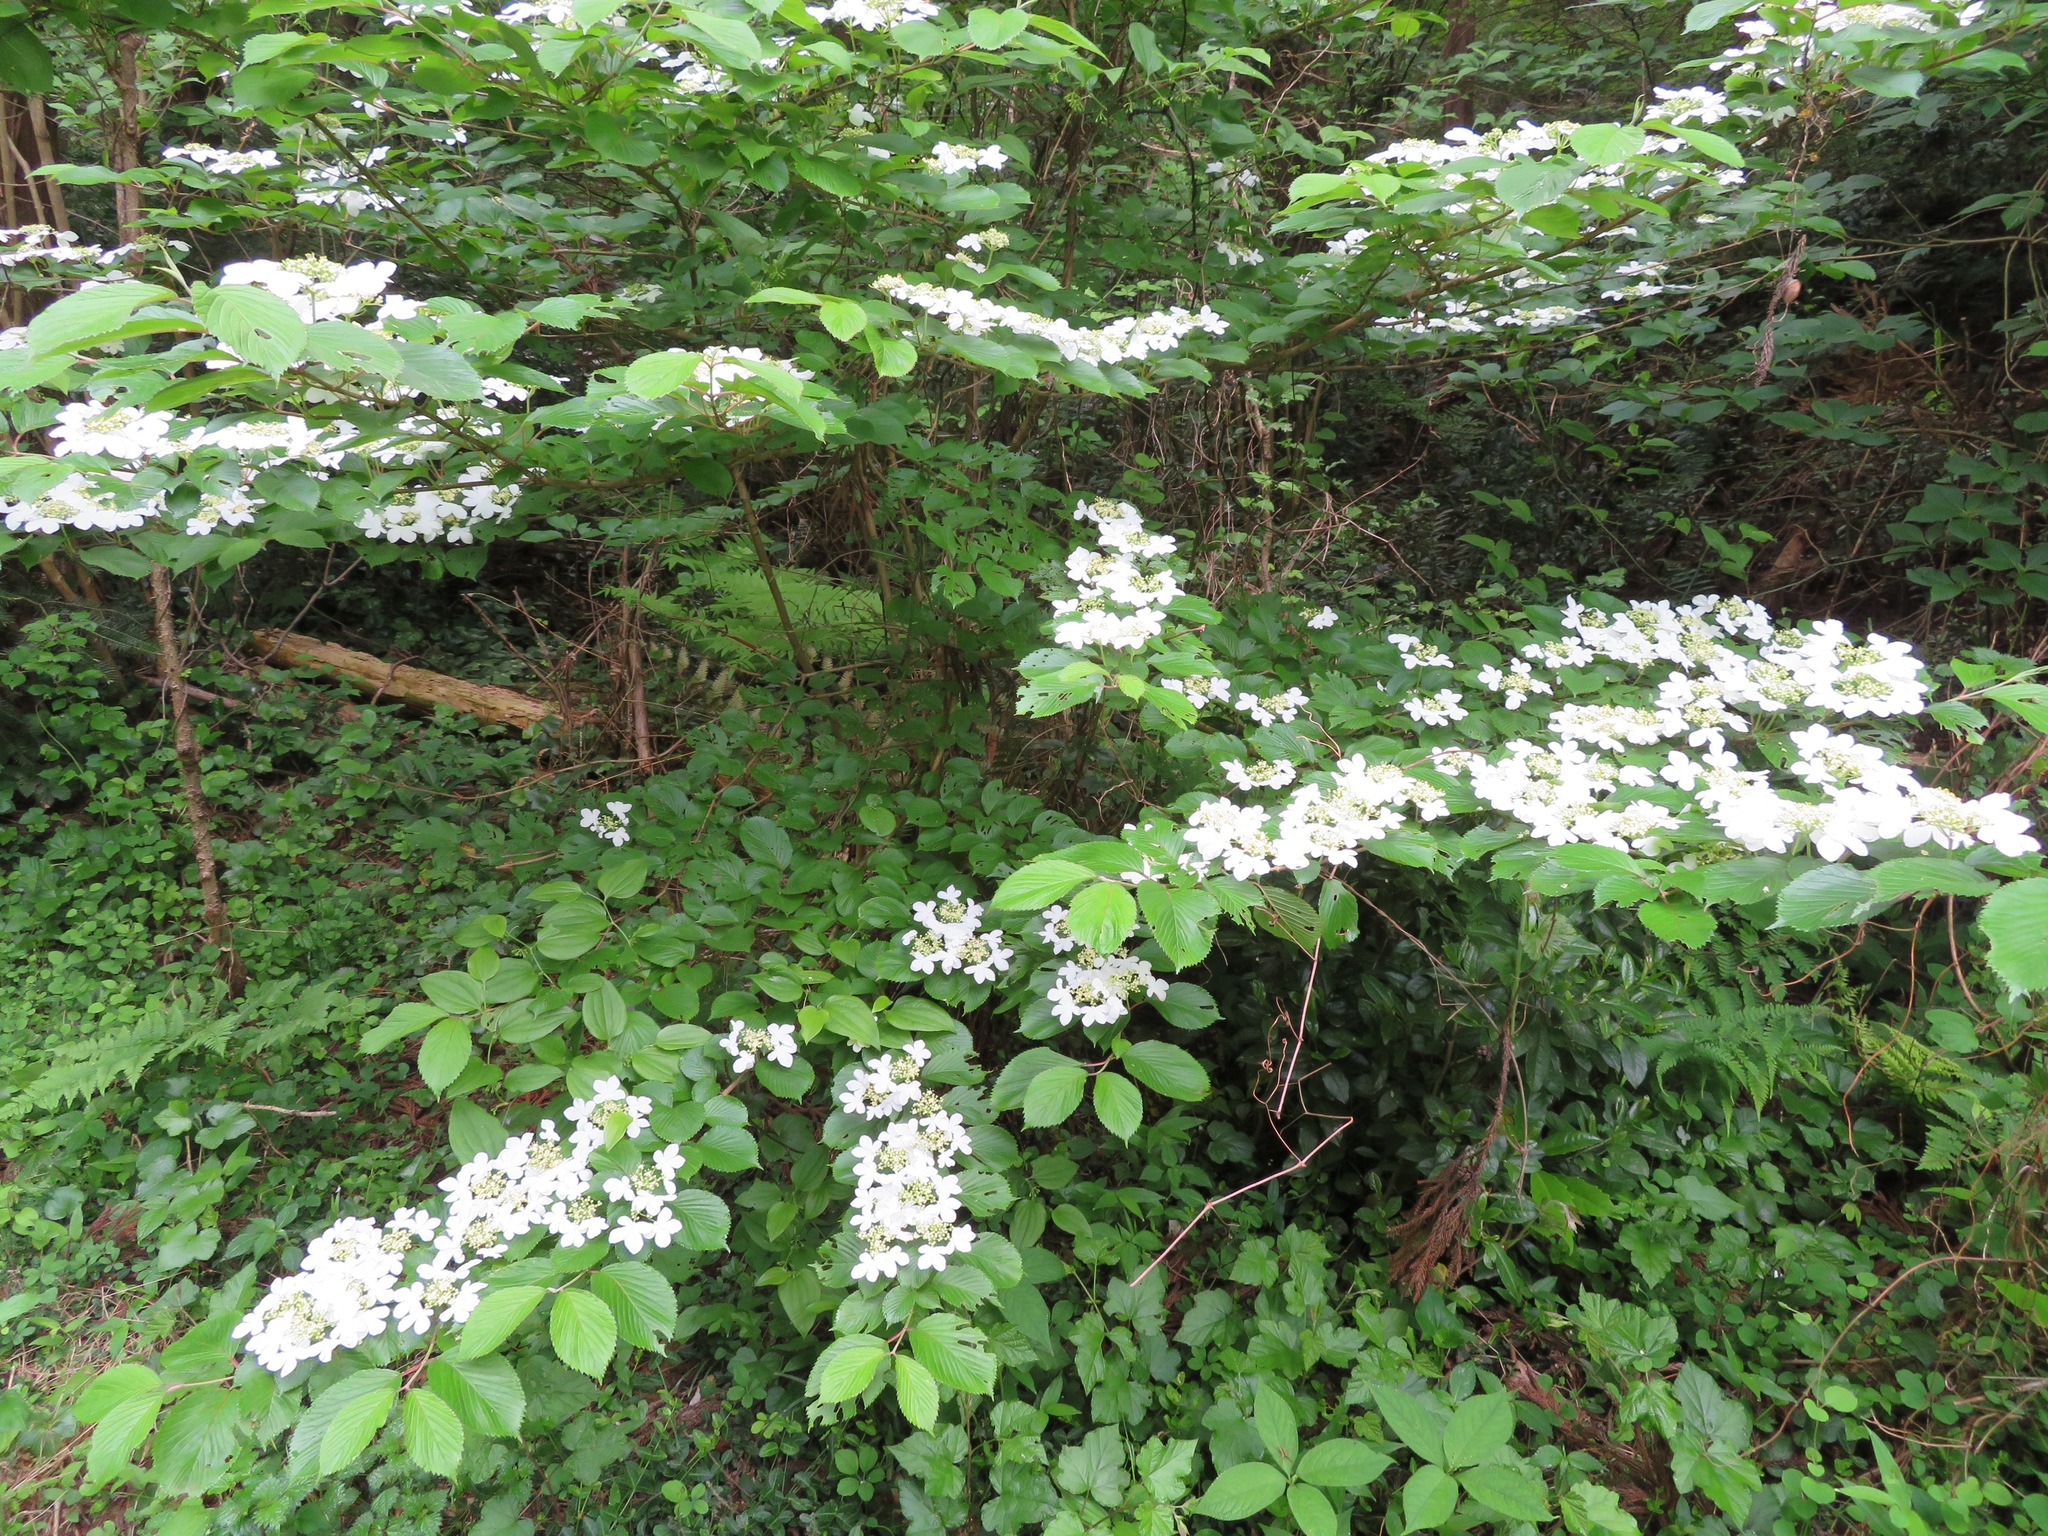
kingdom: Plantae
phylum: Tracheophyta
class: Magnoliopsida
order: Dipsacales
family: Viburnaceae
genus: Viburnum
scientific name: Viburnum plicatum
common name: Japanese snowball
